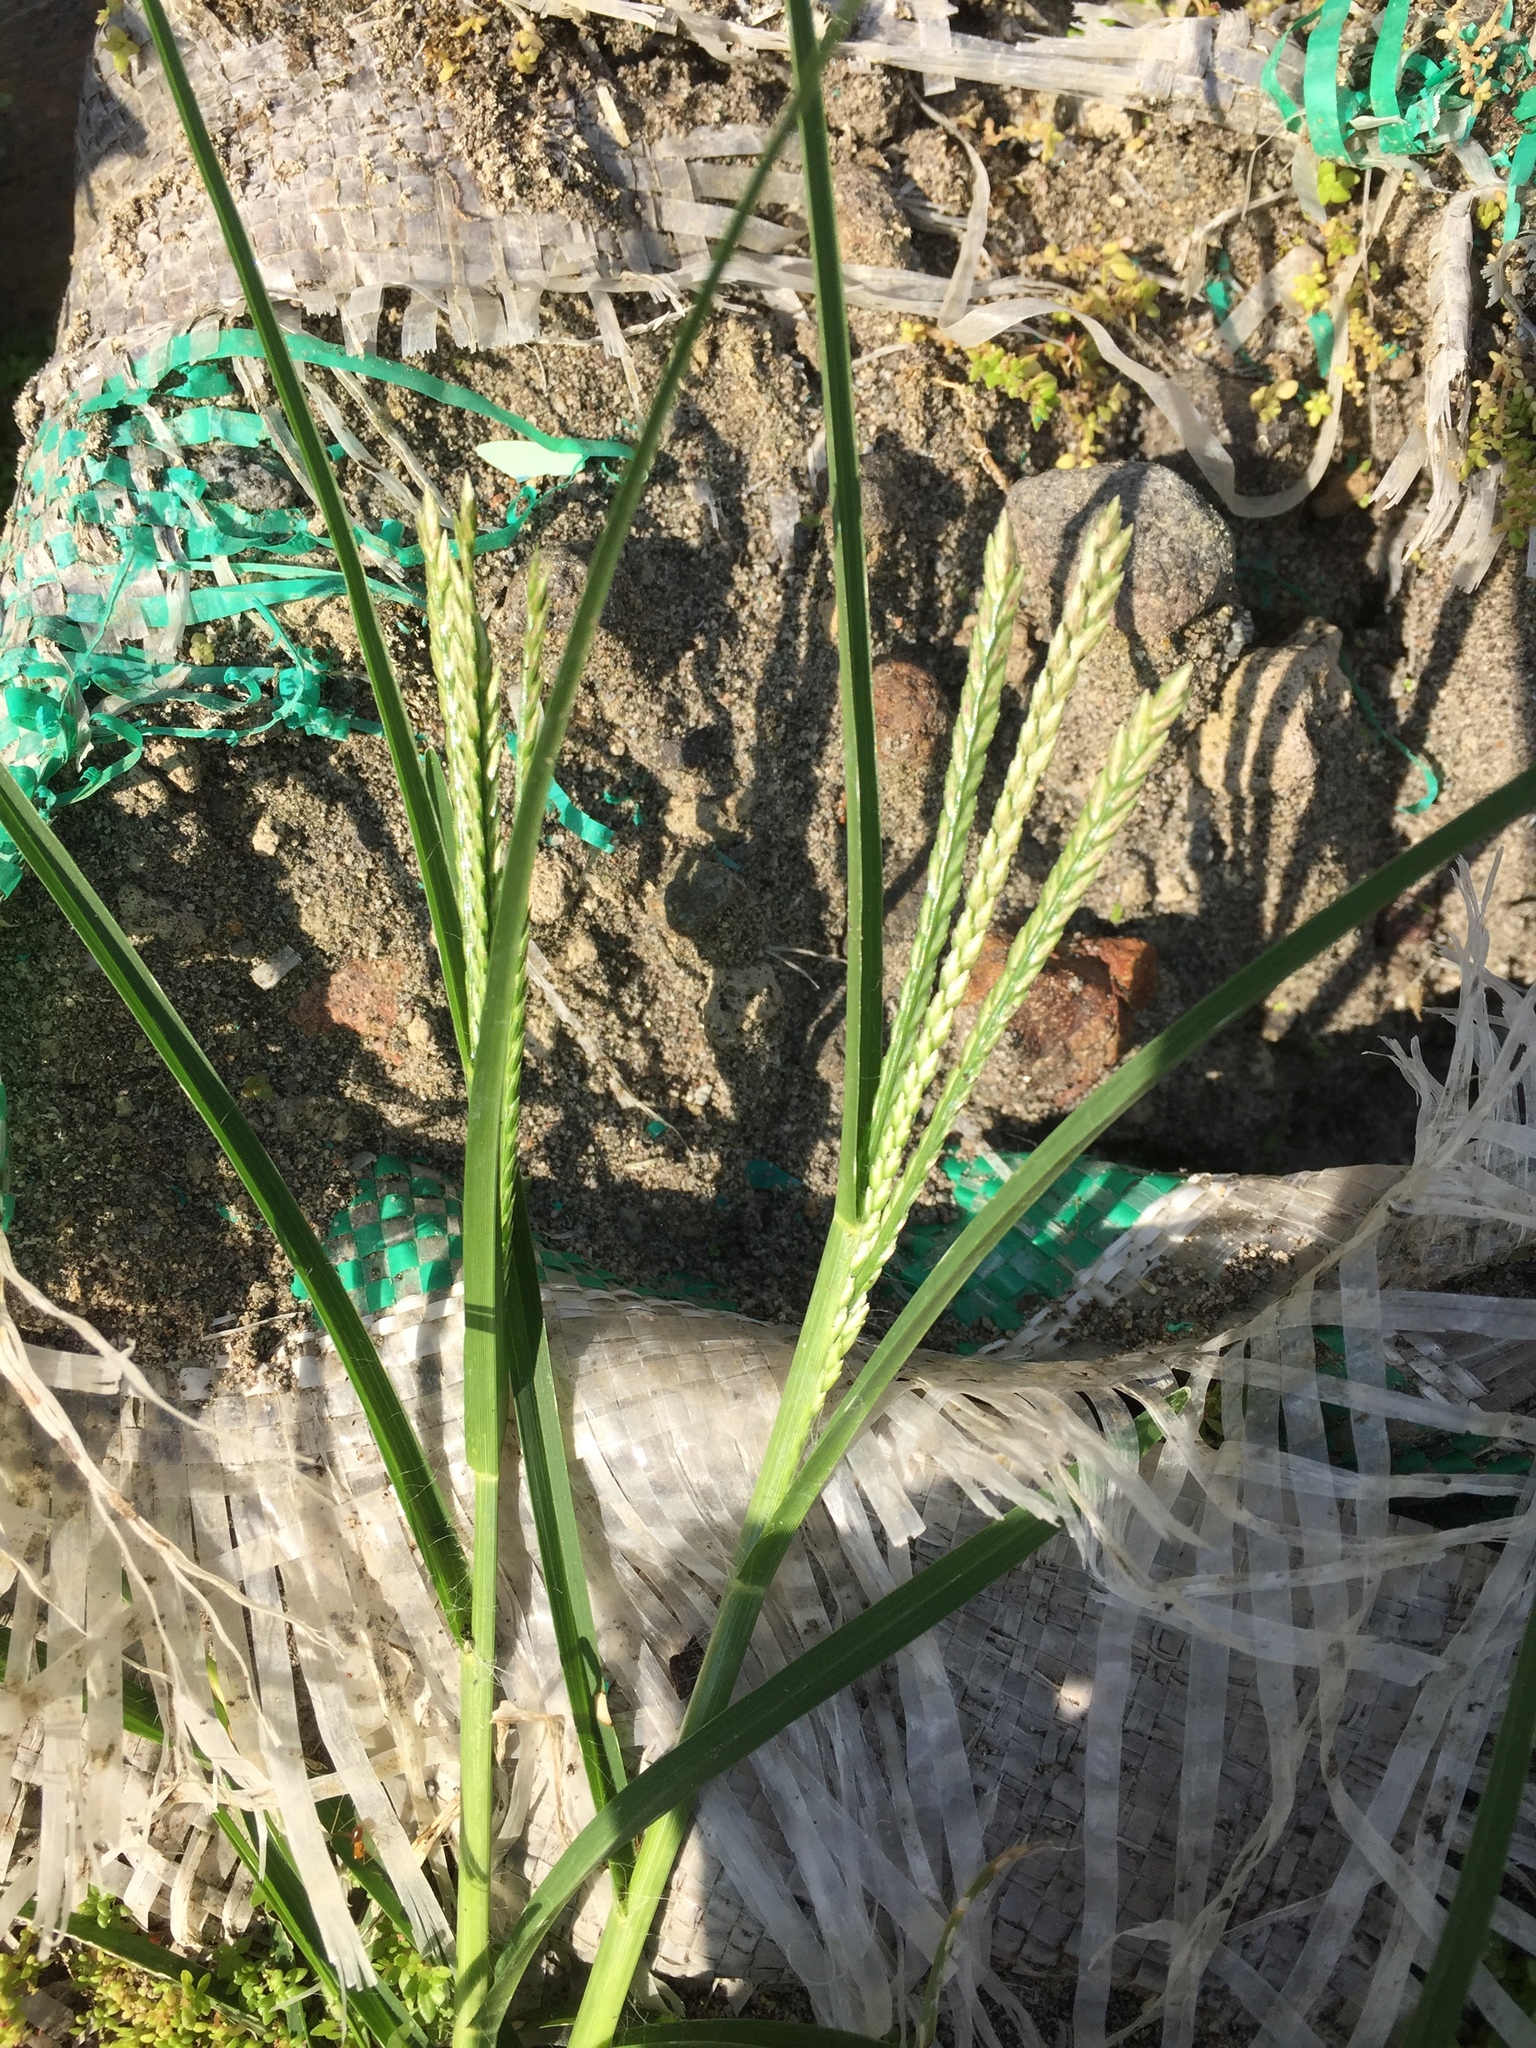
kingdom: Plantae
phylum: Tracheophyta
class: Liliopsida
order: Poales
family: Poaceae
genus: Eleusine
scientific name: Eleusine indica
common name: Yard-grass
